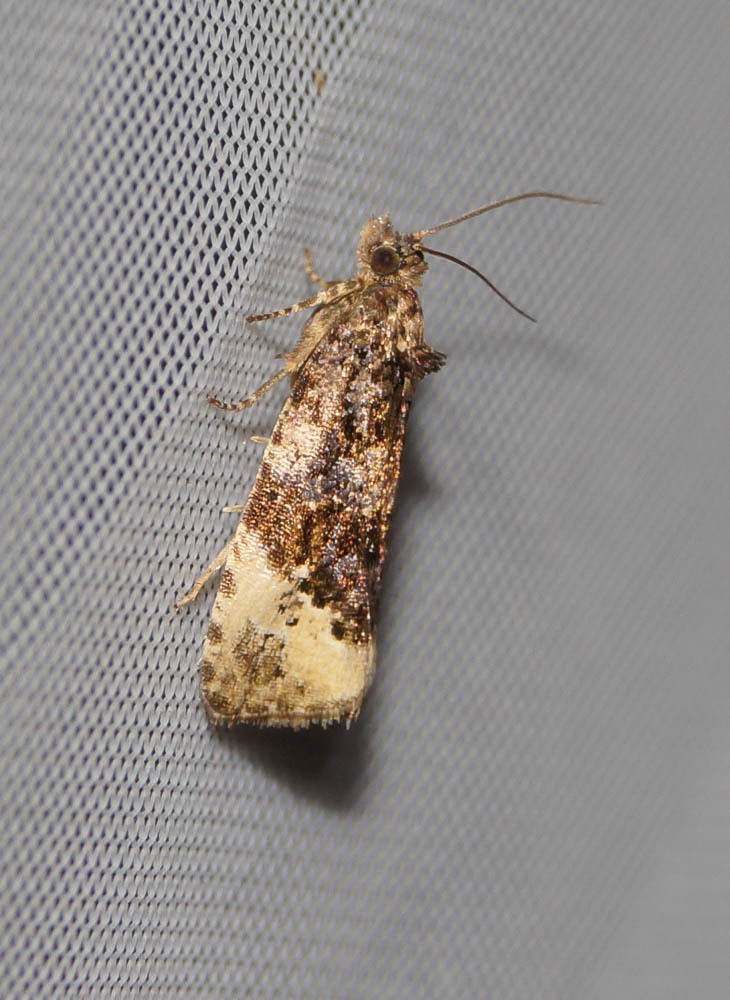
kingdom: Animalia
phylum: Arthropoda
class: Insecta
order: Lepidoptera
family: Tortricidae
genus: Hedya
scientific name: Hedya ochroleucana
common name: Buff-tipped marble
